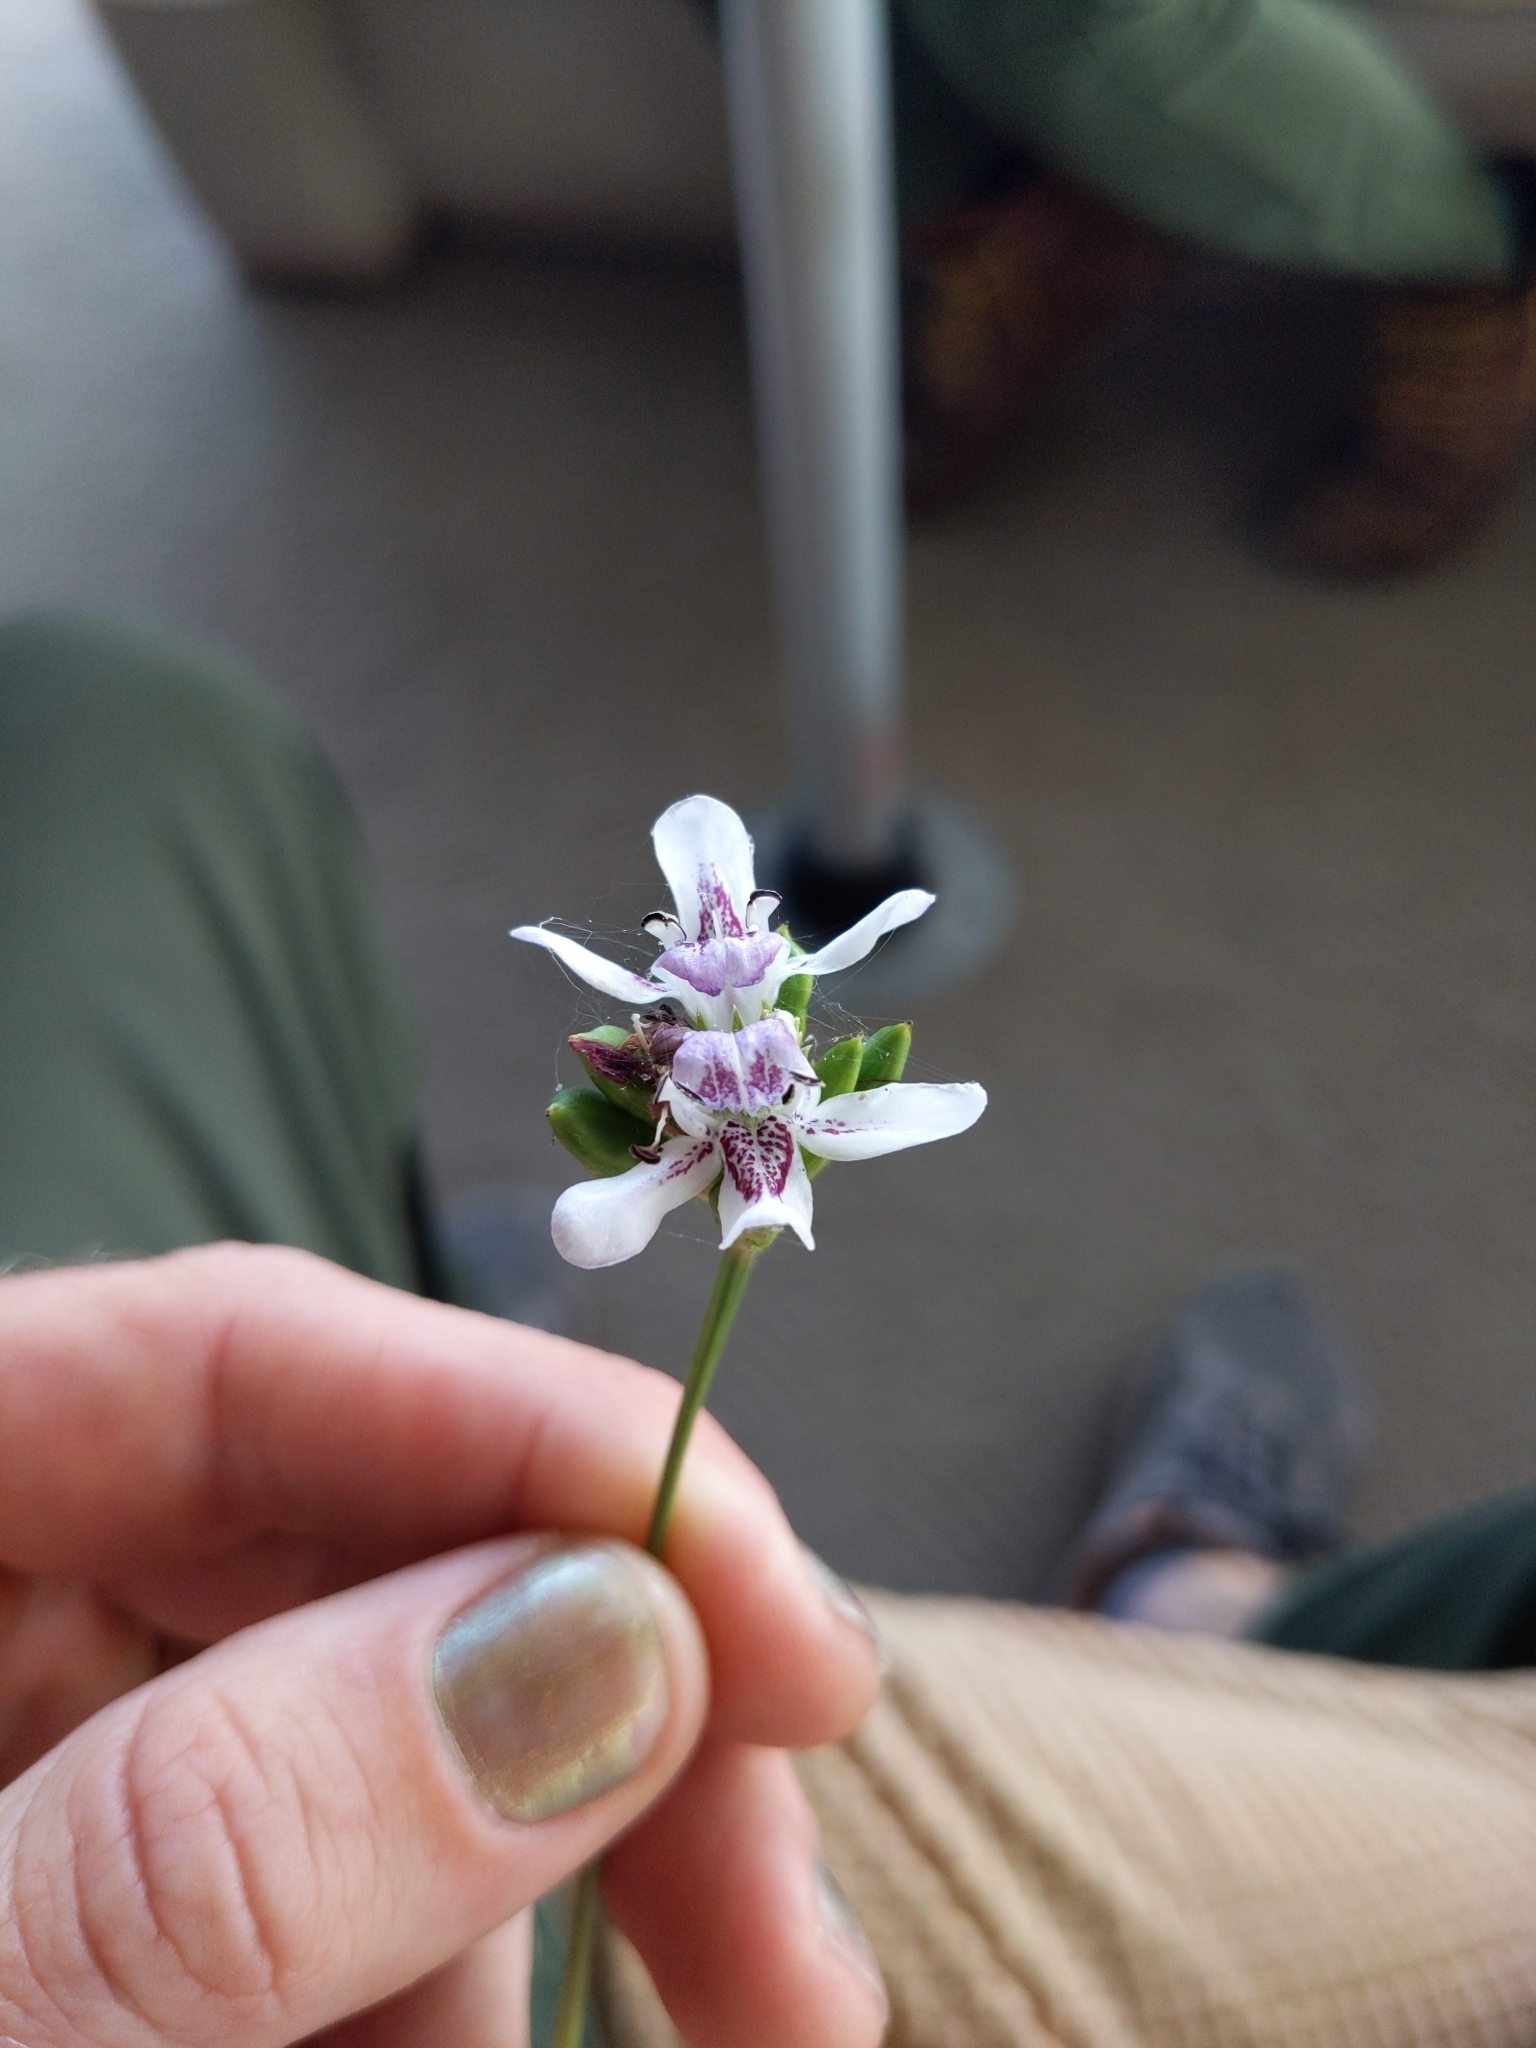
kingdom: Plantae
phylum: Tracheophyta
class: Magnoliopsida
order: Lamiales
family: Acanthaceae
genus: Dianthera
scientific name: Dianthera americana
